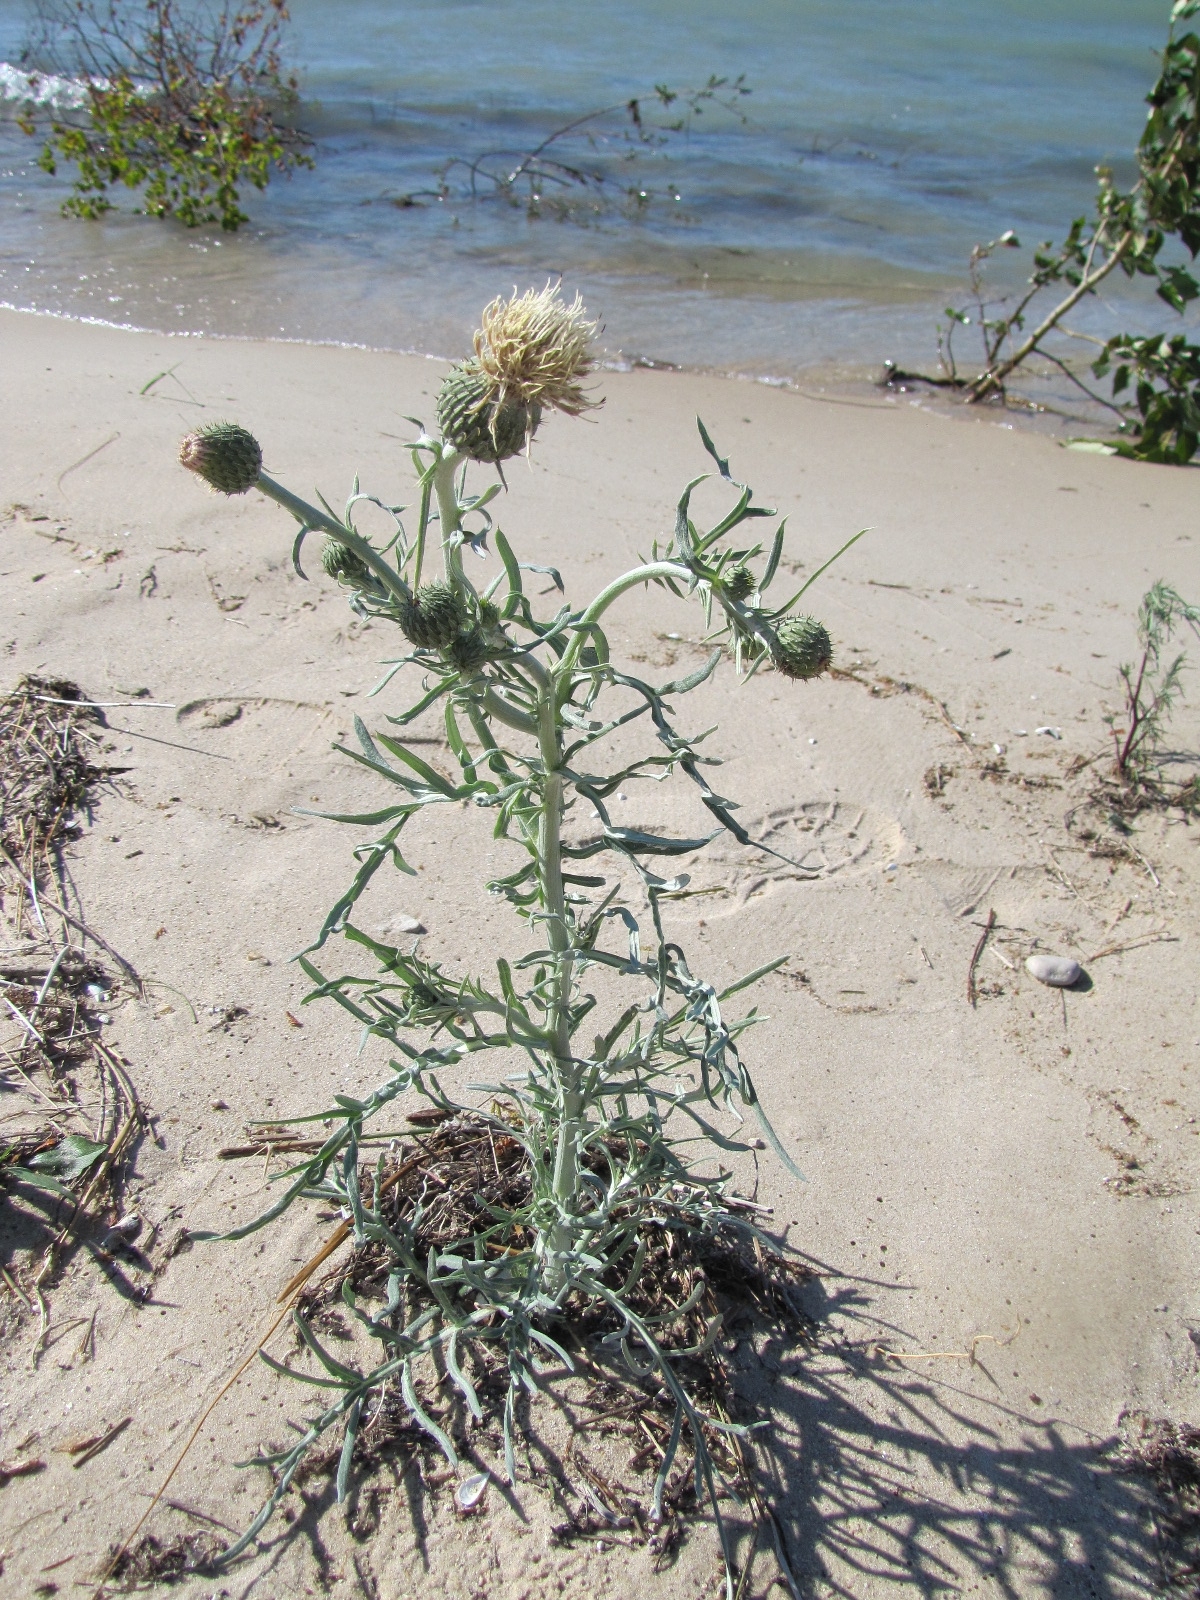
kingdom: Plantae
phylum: Tracheophyta
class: Magnoliopsida
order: Asterales
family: Asteraceae
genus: Cirsium
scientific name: Cirsium pitcheri
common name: Dune thistle
